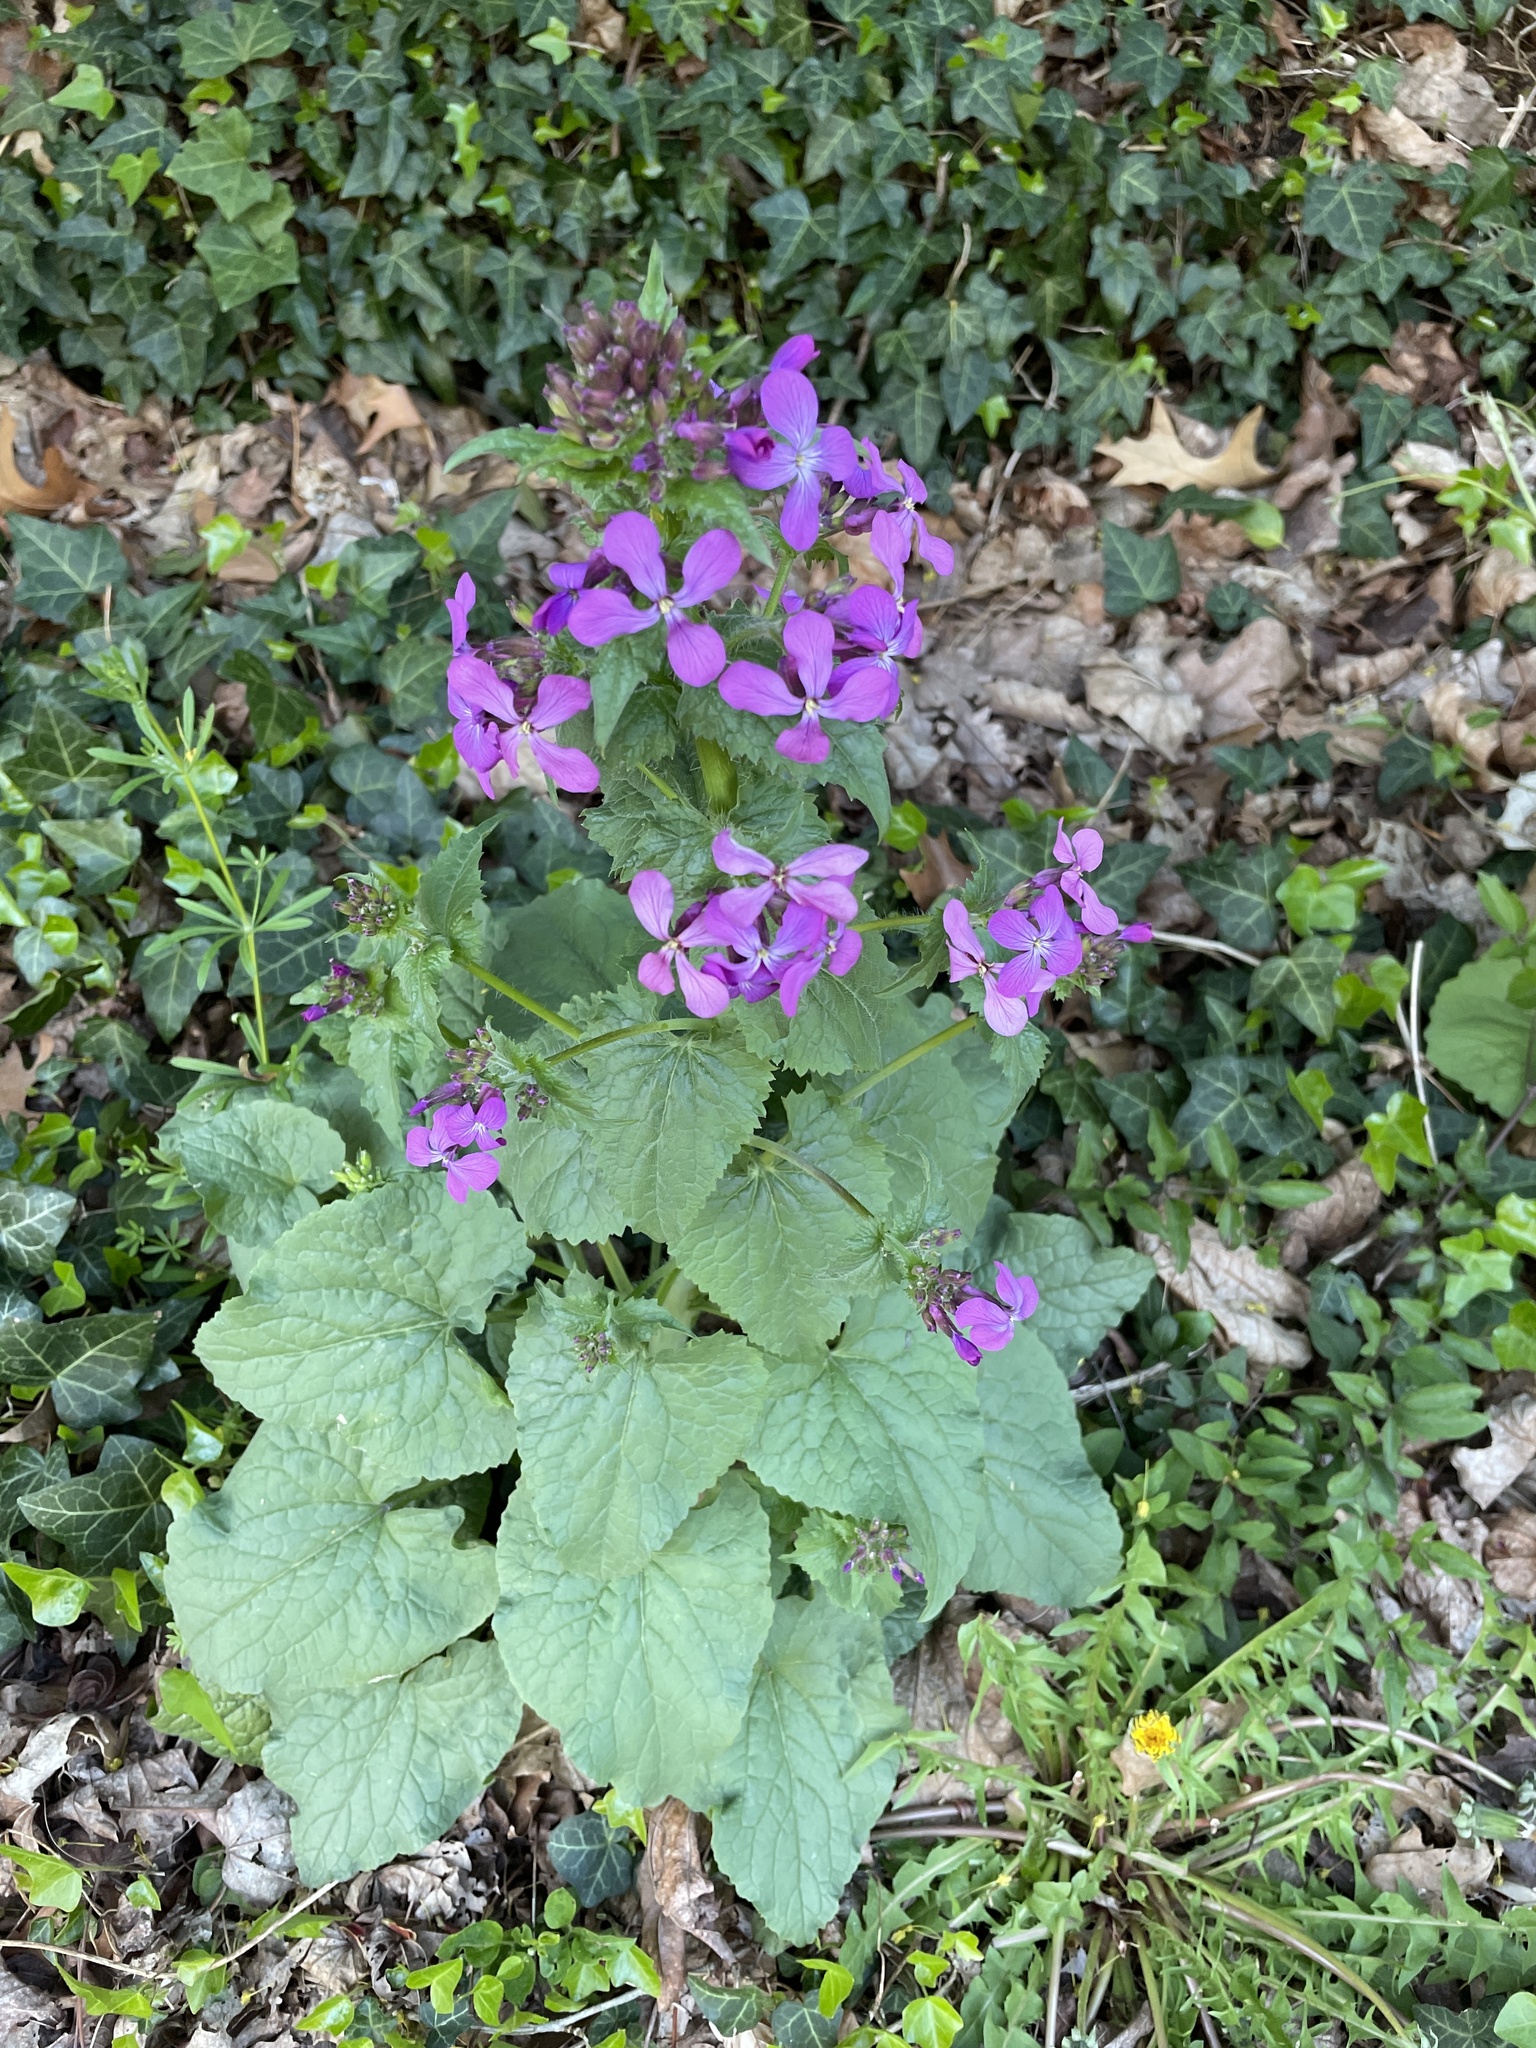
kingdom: Plantae
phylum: Tracheophyta
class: Magnoliopsida
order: Brassicales
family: Brassicaceae
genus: Lunaria
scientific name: Lunaria annua
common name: Honesty
